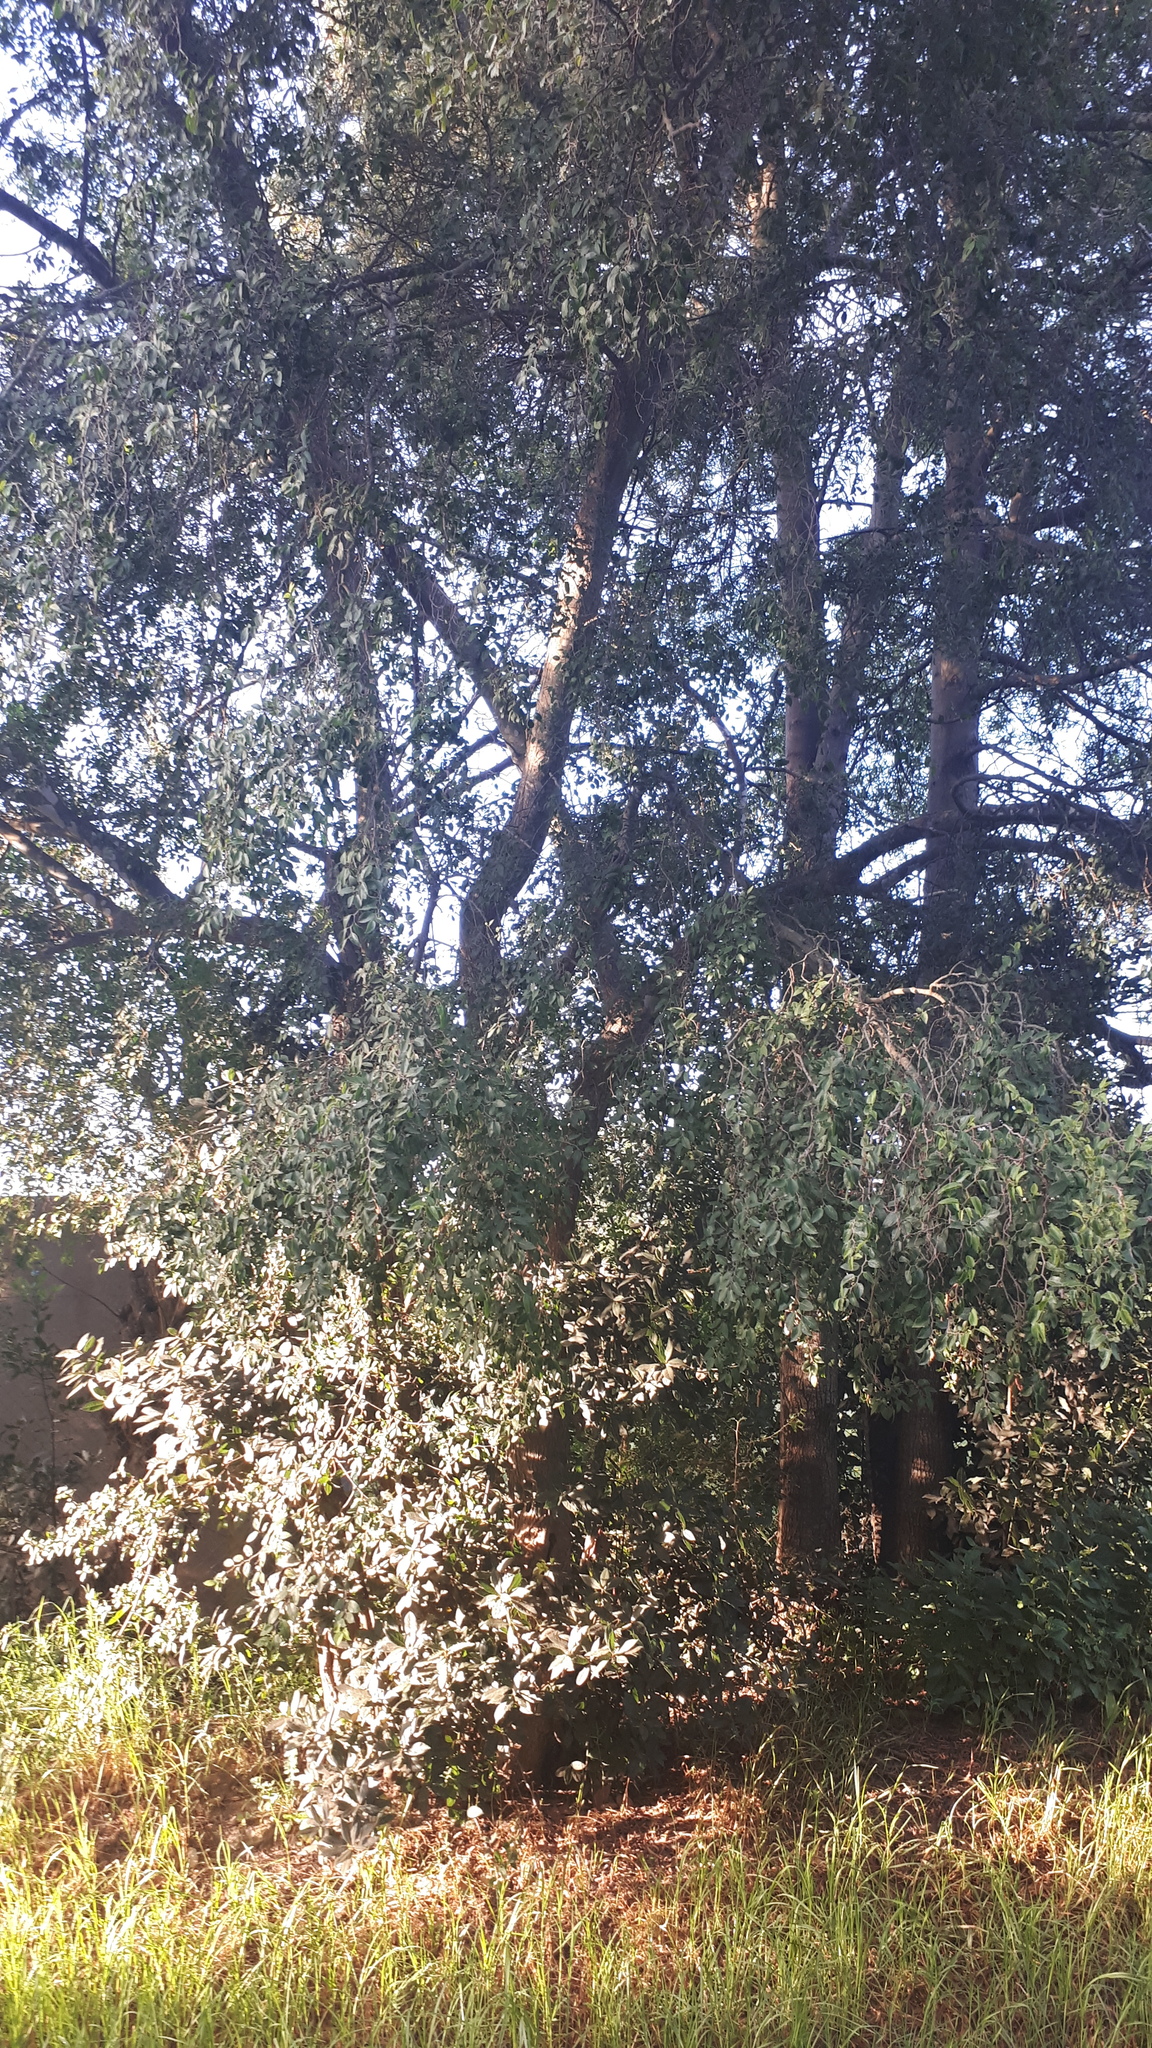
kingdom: Plantae
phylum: Tracheophyta
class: Magnoliopsida
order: Rosales
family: Cannabaceae
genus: Celtis
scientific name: Celtis tala
